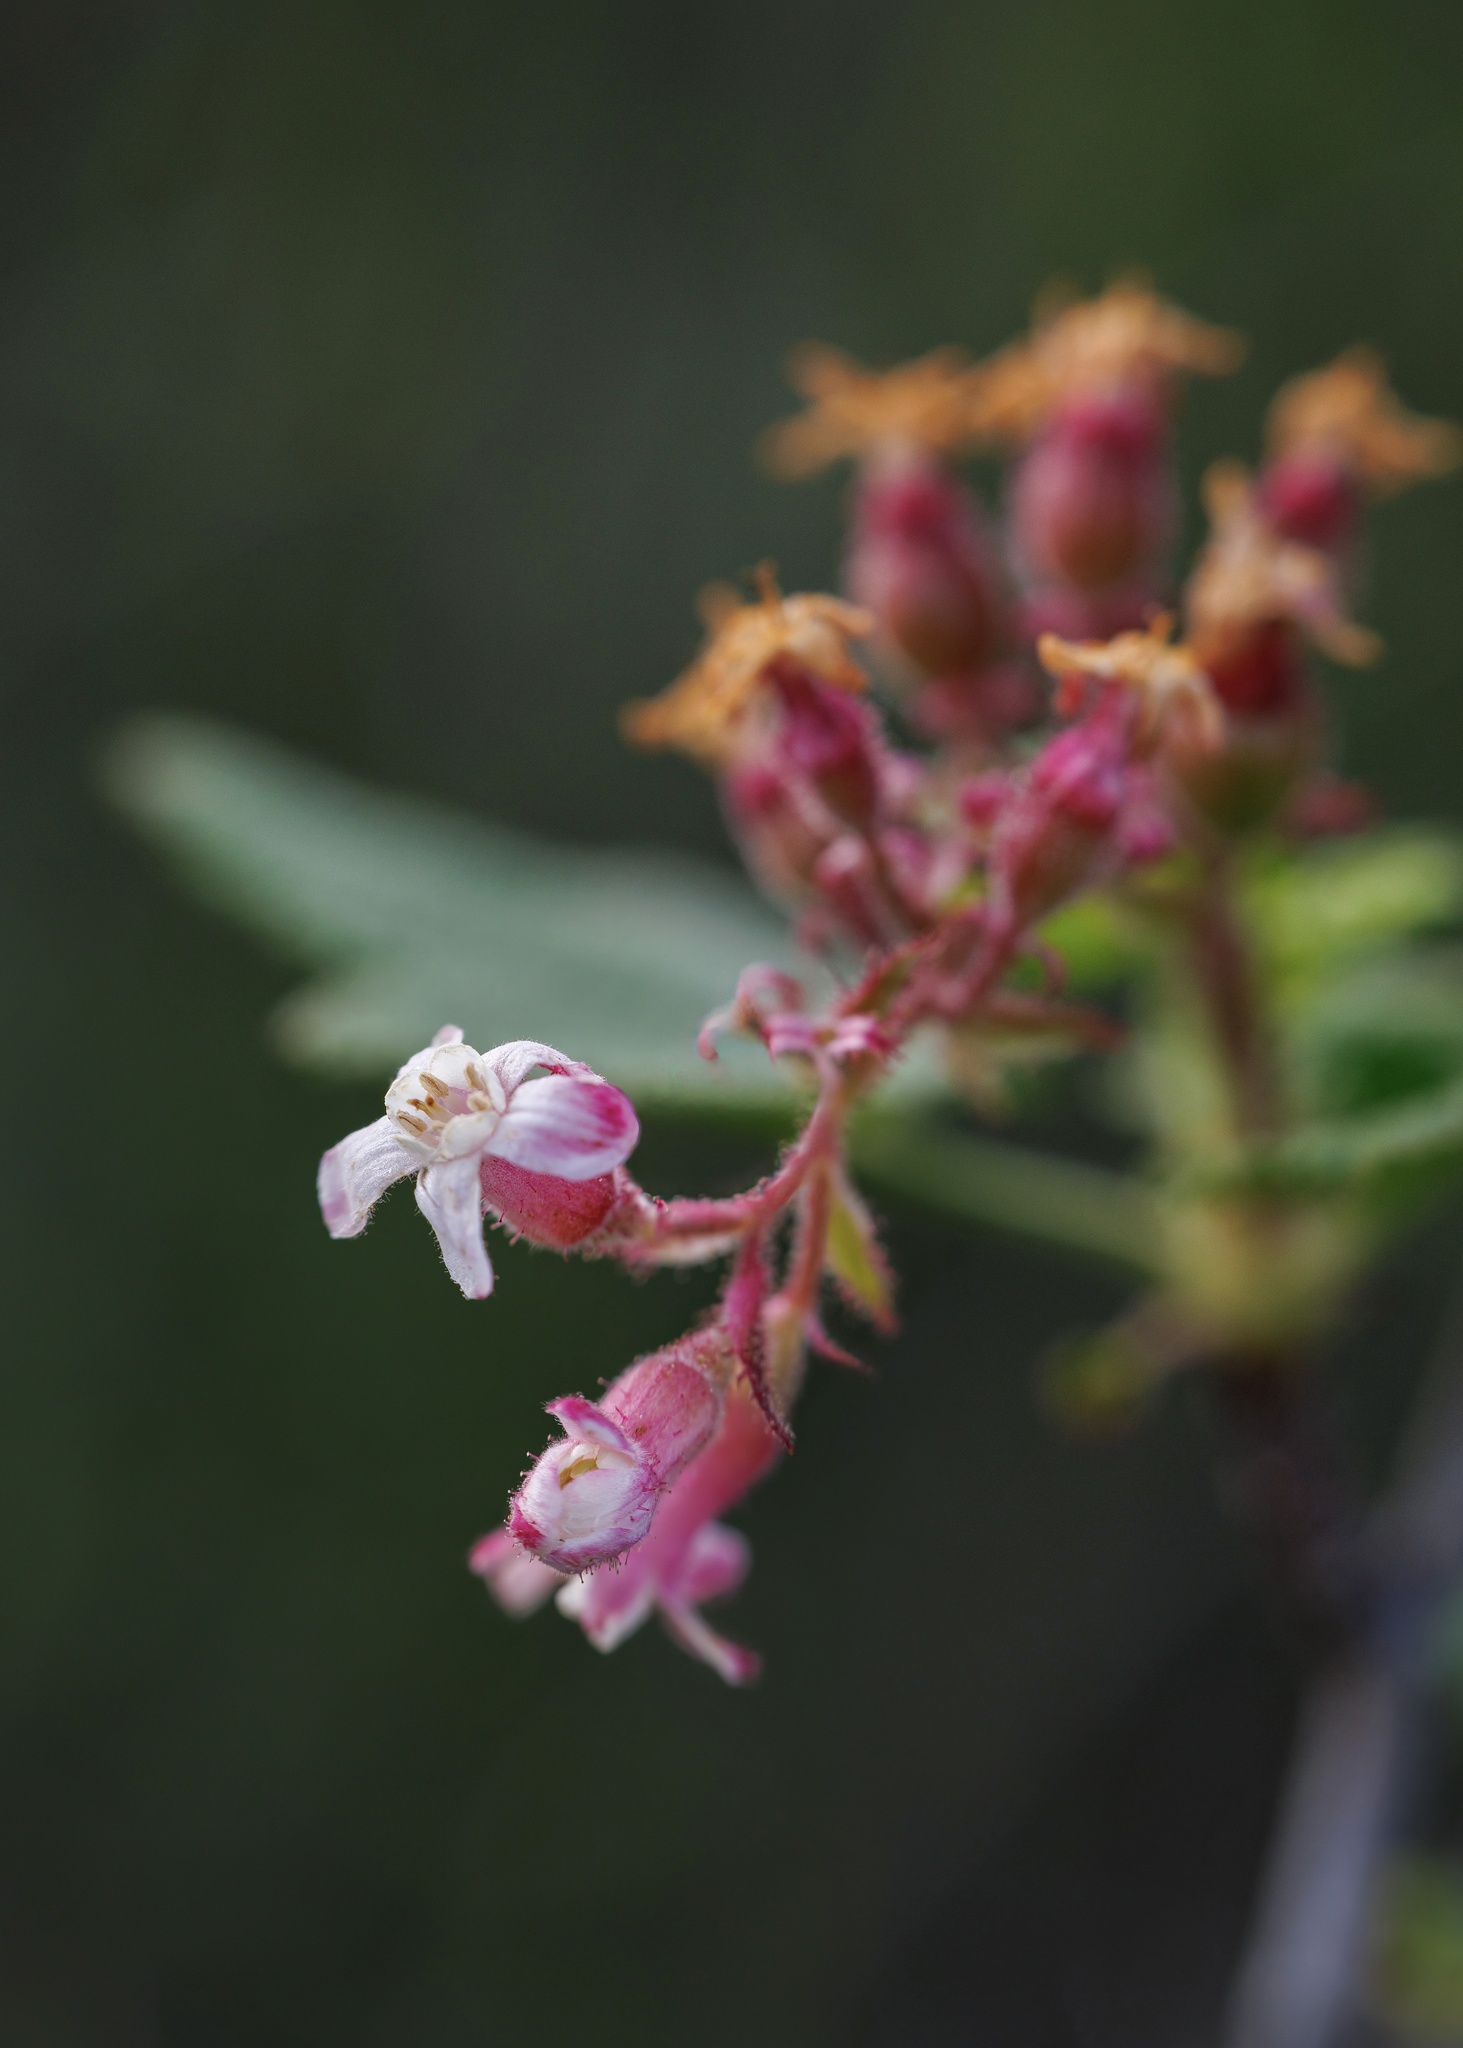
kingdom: Plantae
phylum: Tracheophyta
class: Magnoliopsida
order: Saxifragales
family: Grossulariaceae
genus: Ribes
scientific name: Ribes malvaceum
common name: Chaparral currant
